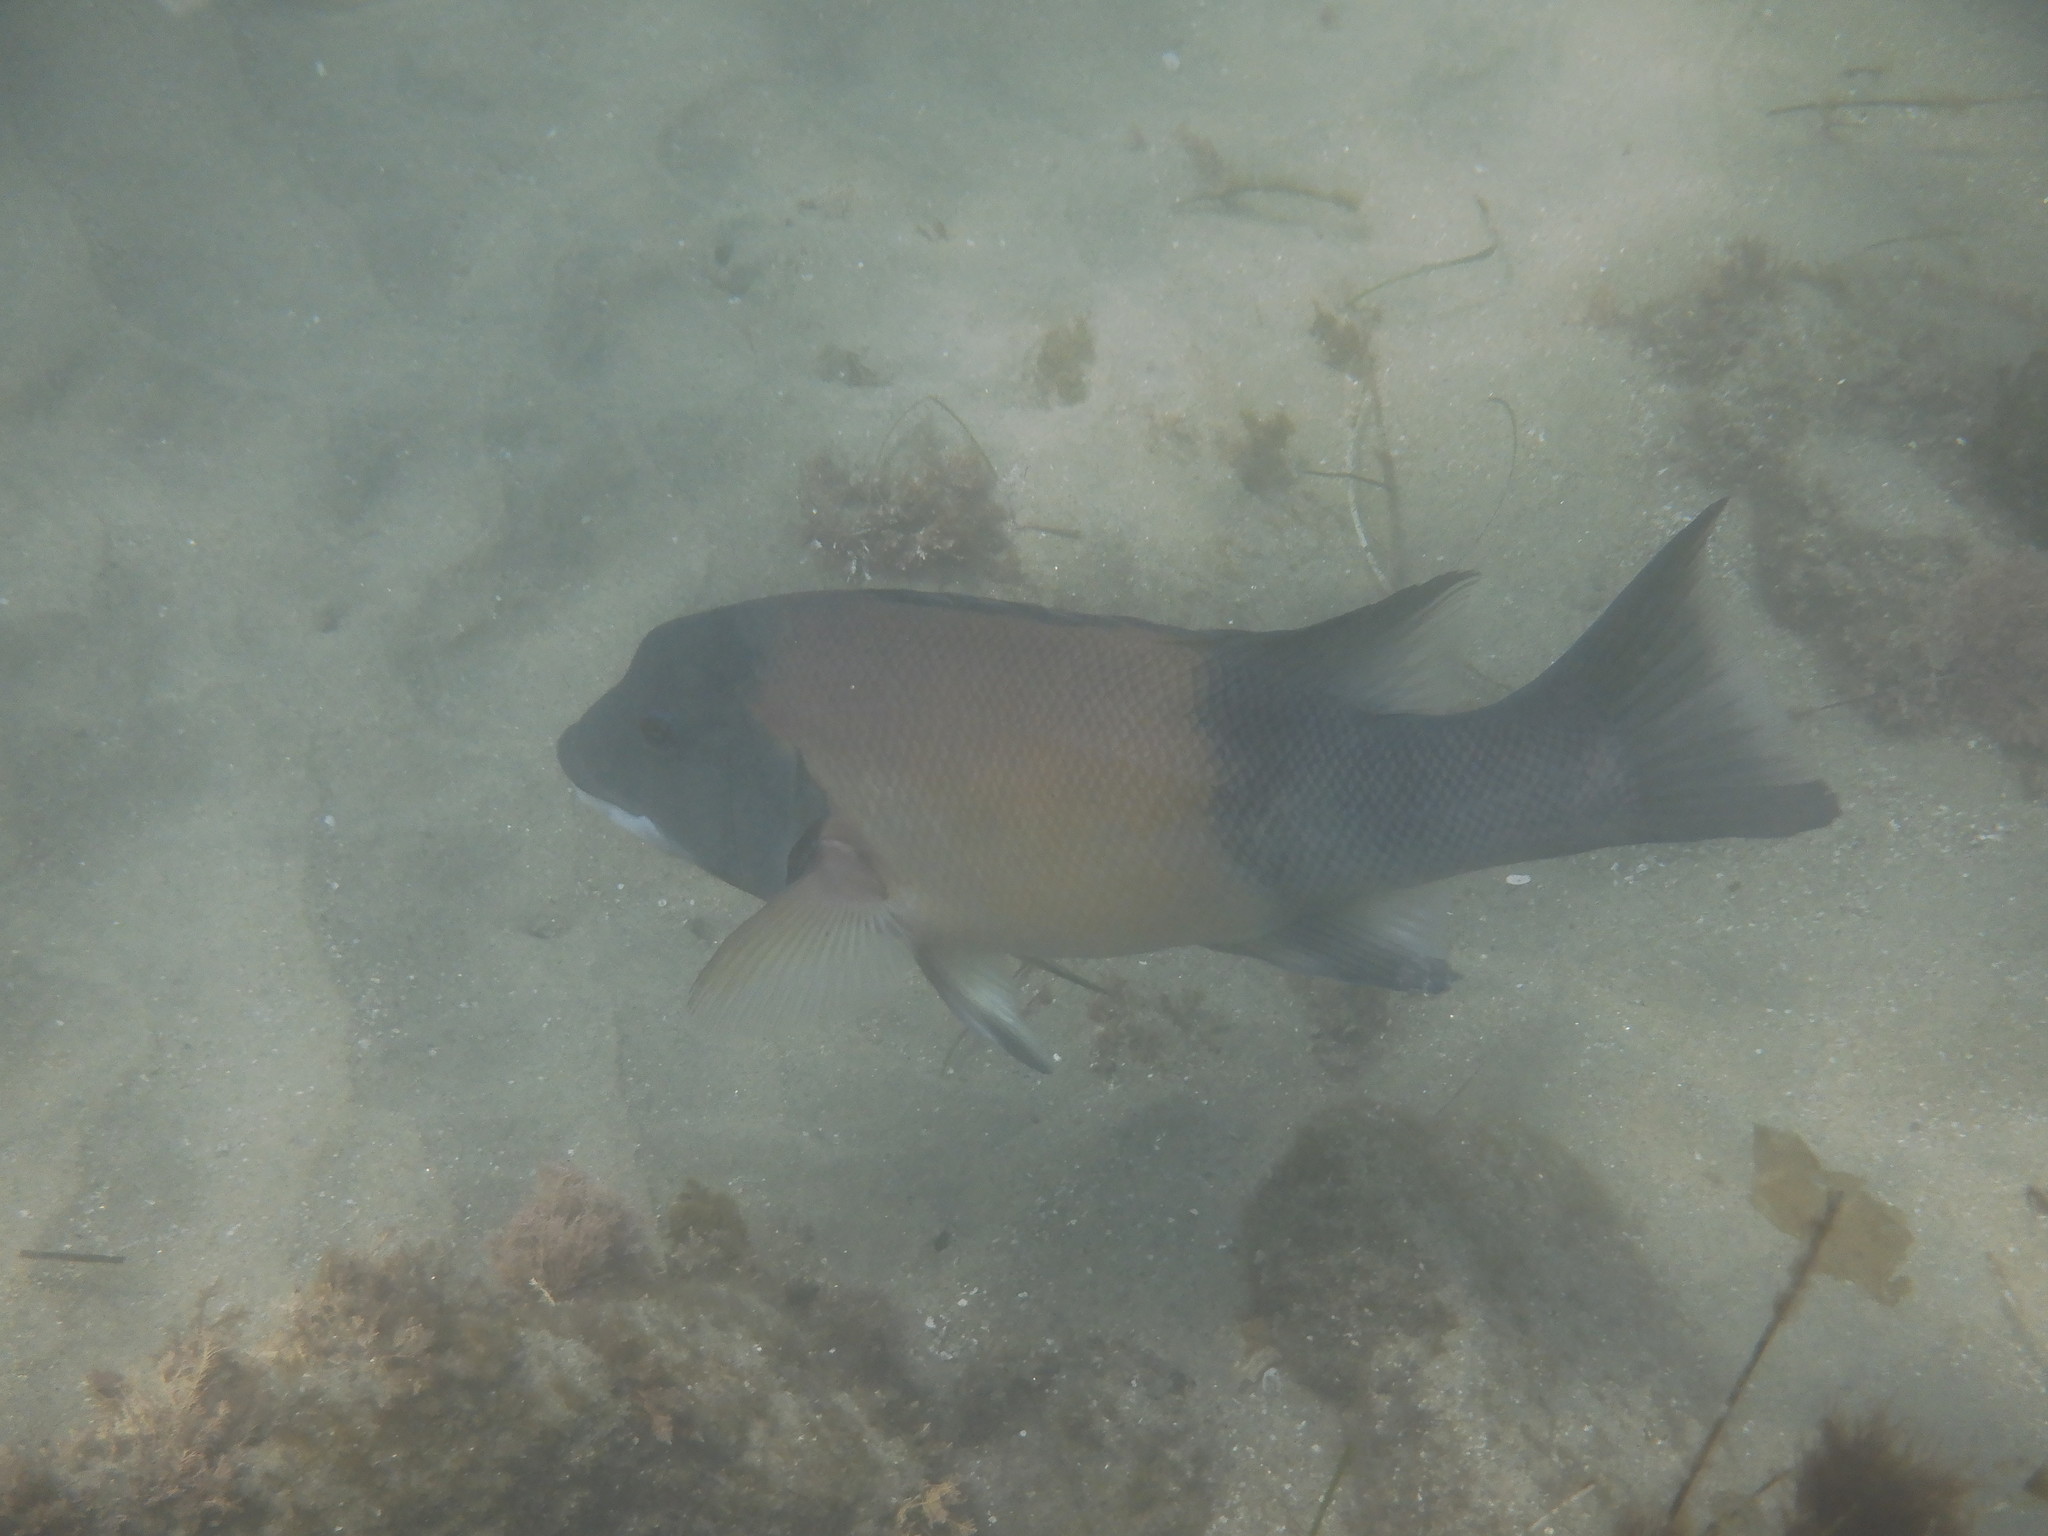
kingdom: Animalia
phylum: Chordata
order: Perciformes
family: Labridae
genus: Semicossyphus
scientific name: Semicossyphus pulcher
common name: California sheephead
